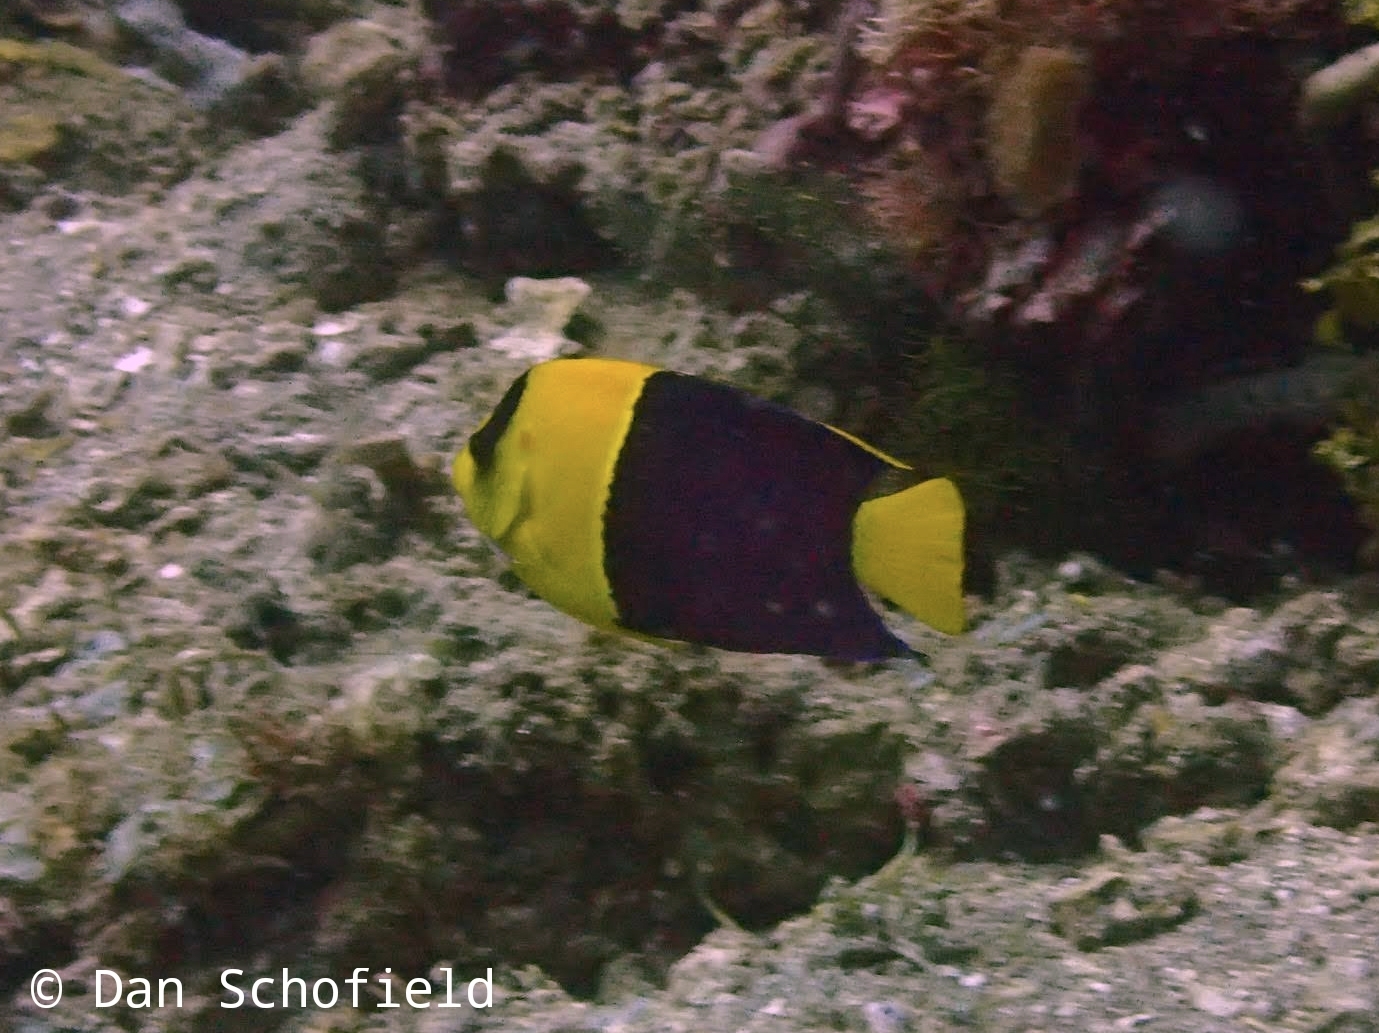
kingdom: Animalia
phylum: Chordata
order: Perciformes
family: Pomacanthidae
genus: Centropyge
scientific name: Centropyge bicolor
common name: Bicolor angelfish
